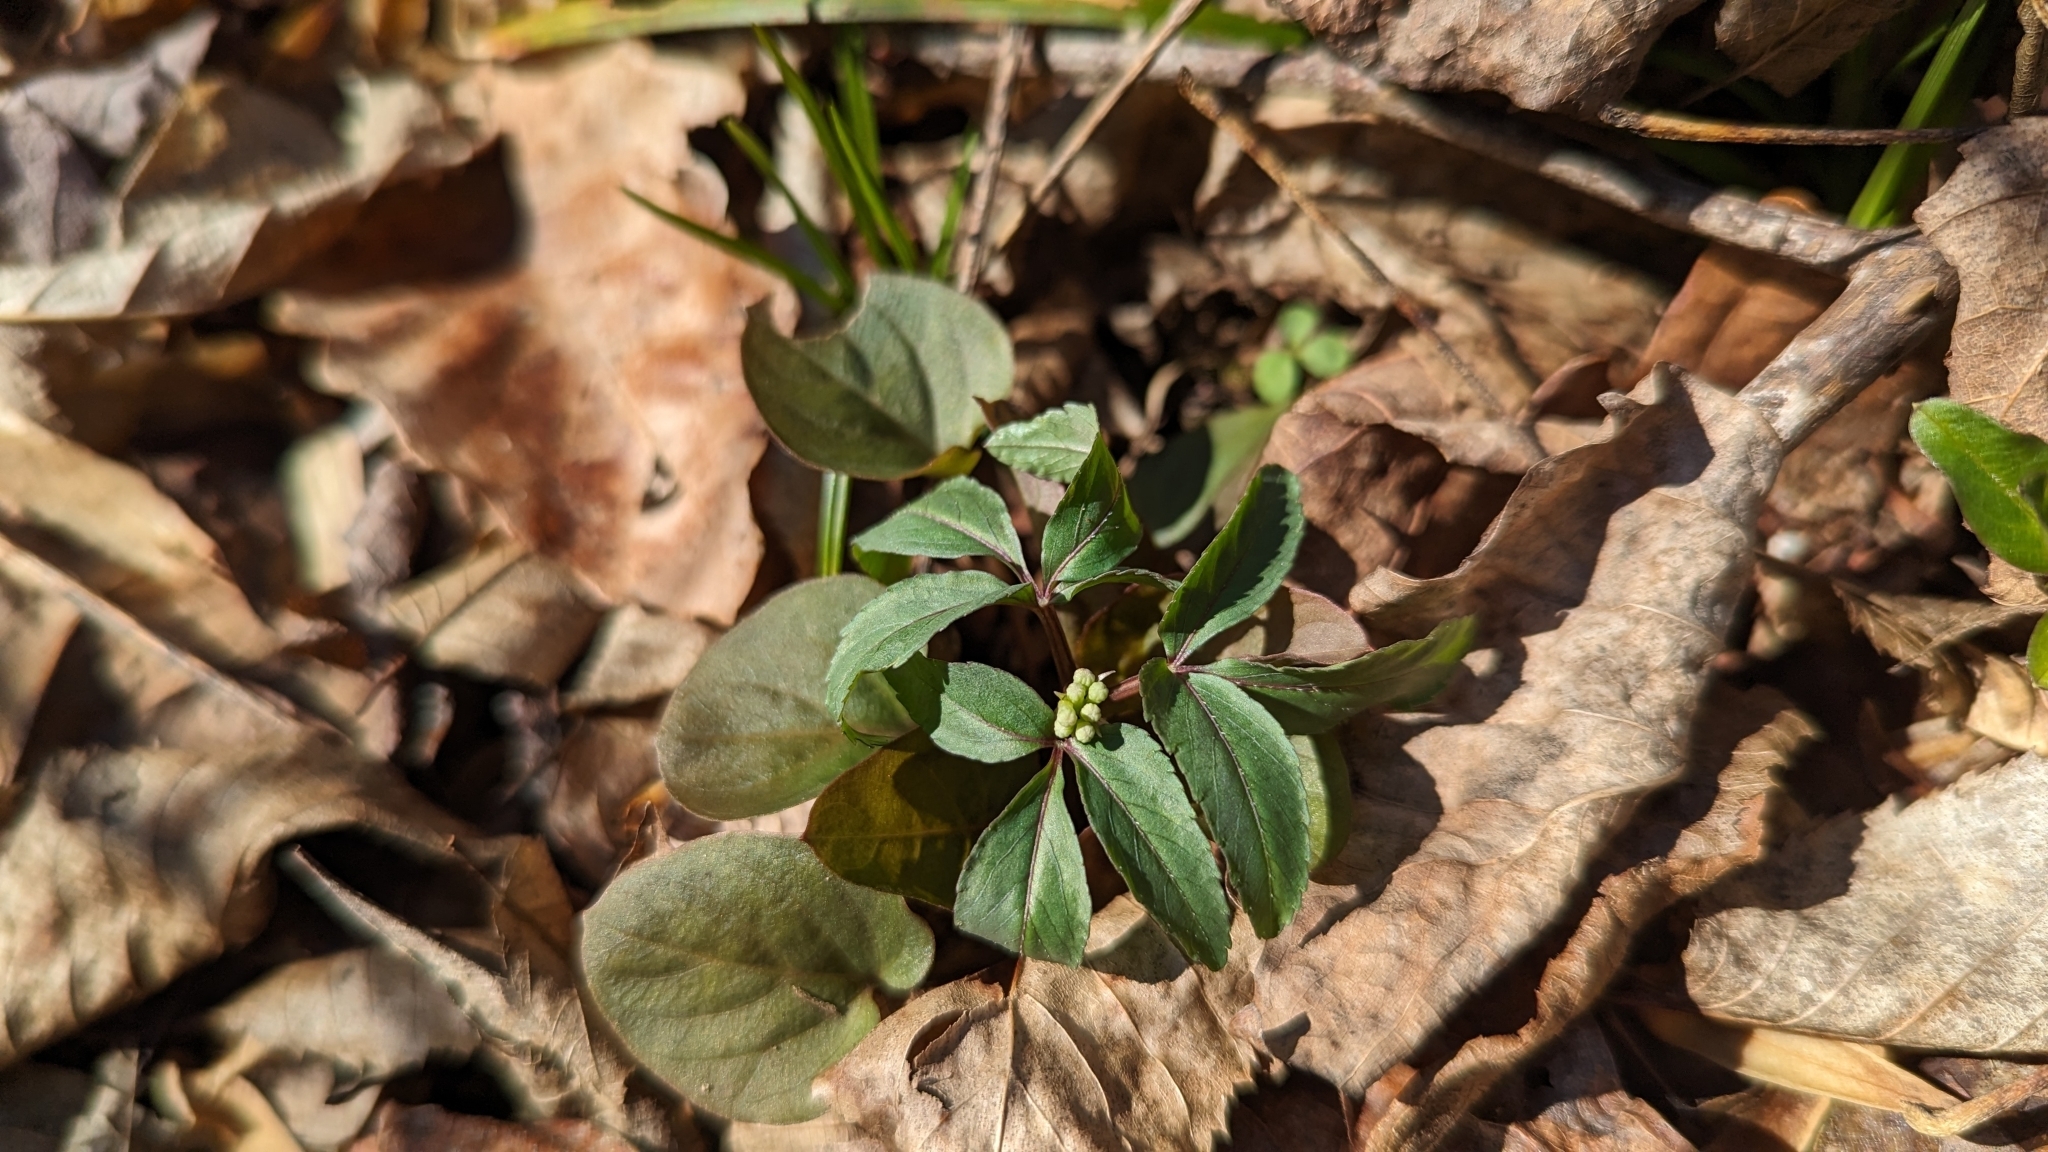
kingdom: Plantae
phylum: Tracheophyta
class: Magnoliopsida
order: Apiales
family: Araliaceae
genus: Panax
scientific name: Panax trifolius
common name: Dwarf ginseng
